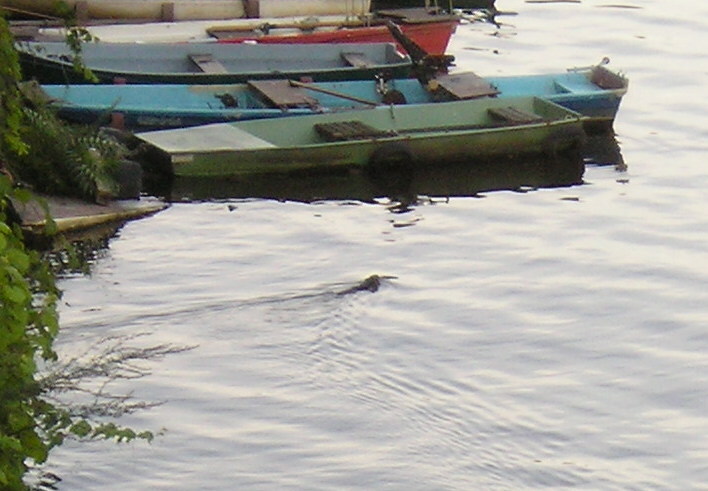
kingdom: Animalia
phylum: Chordata
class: Mammalia
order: Rodentia
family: Myocastoridae
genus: Myocastor
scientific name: Myocastor coypus
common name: Coypu
